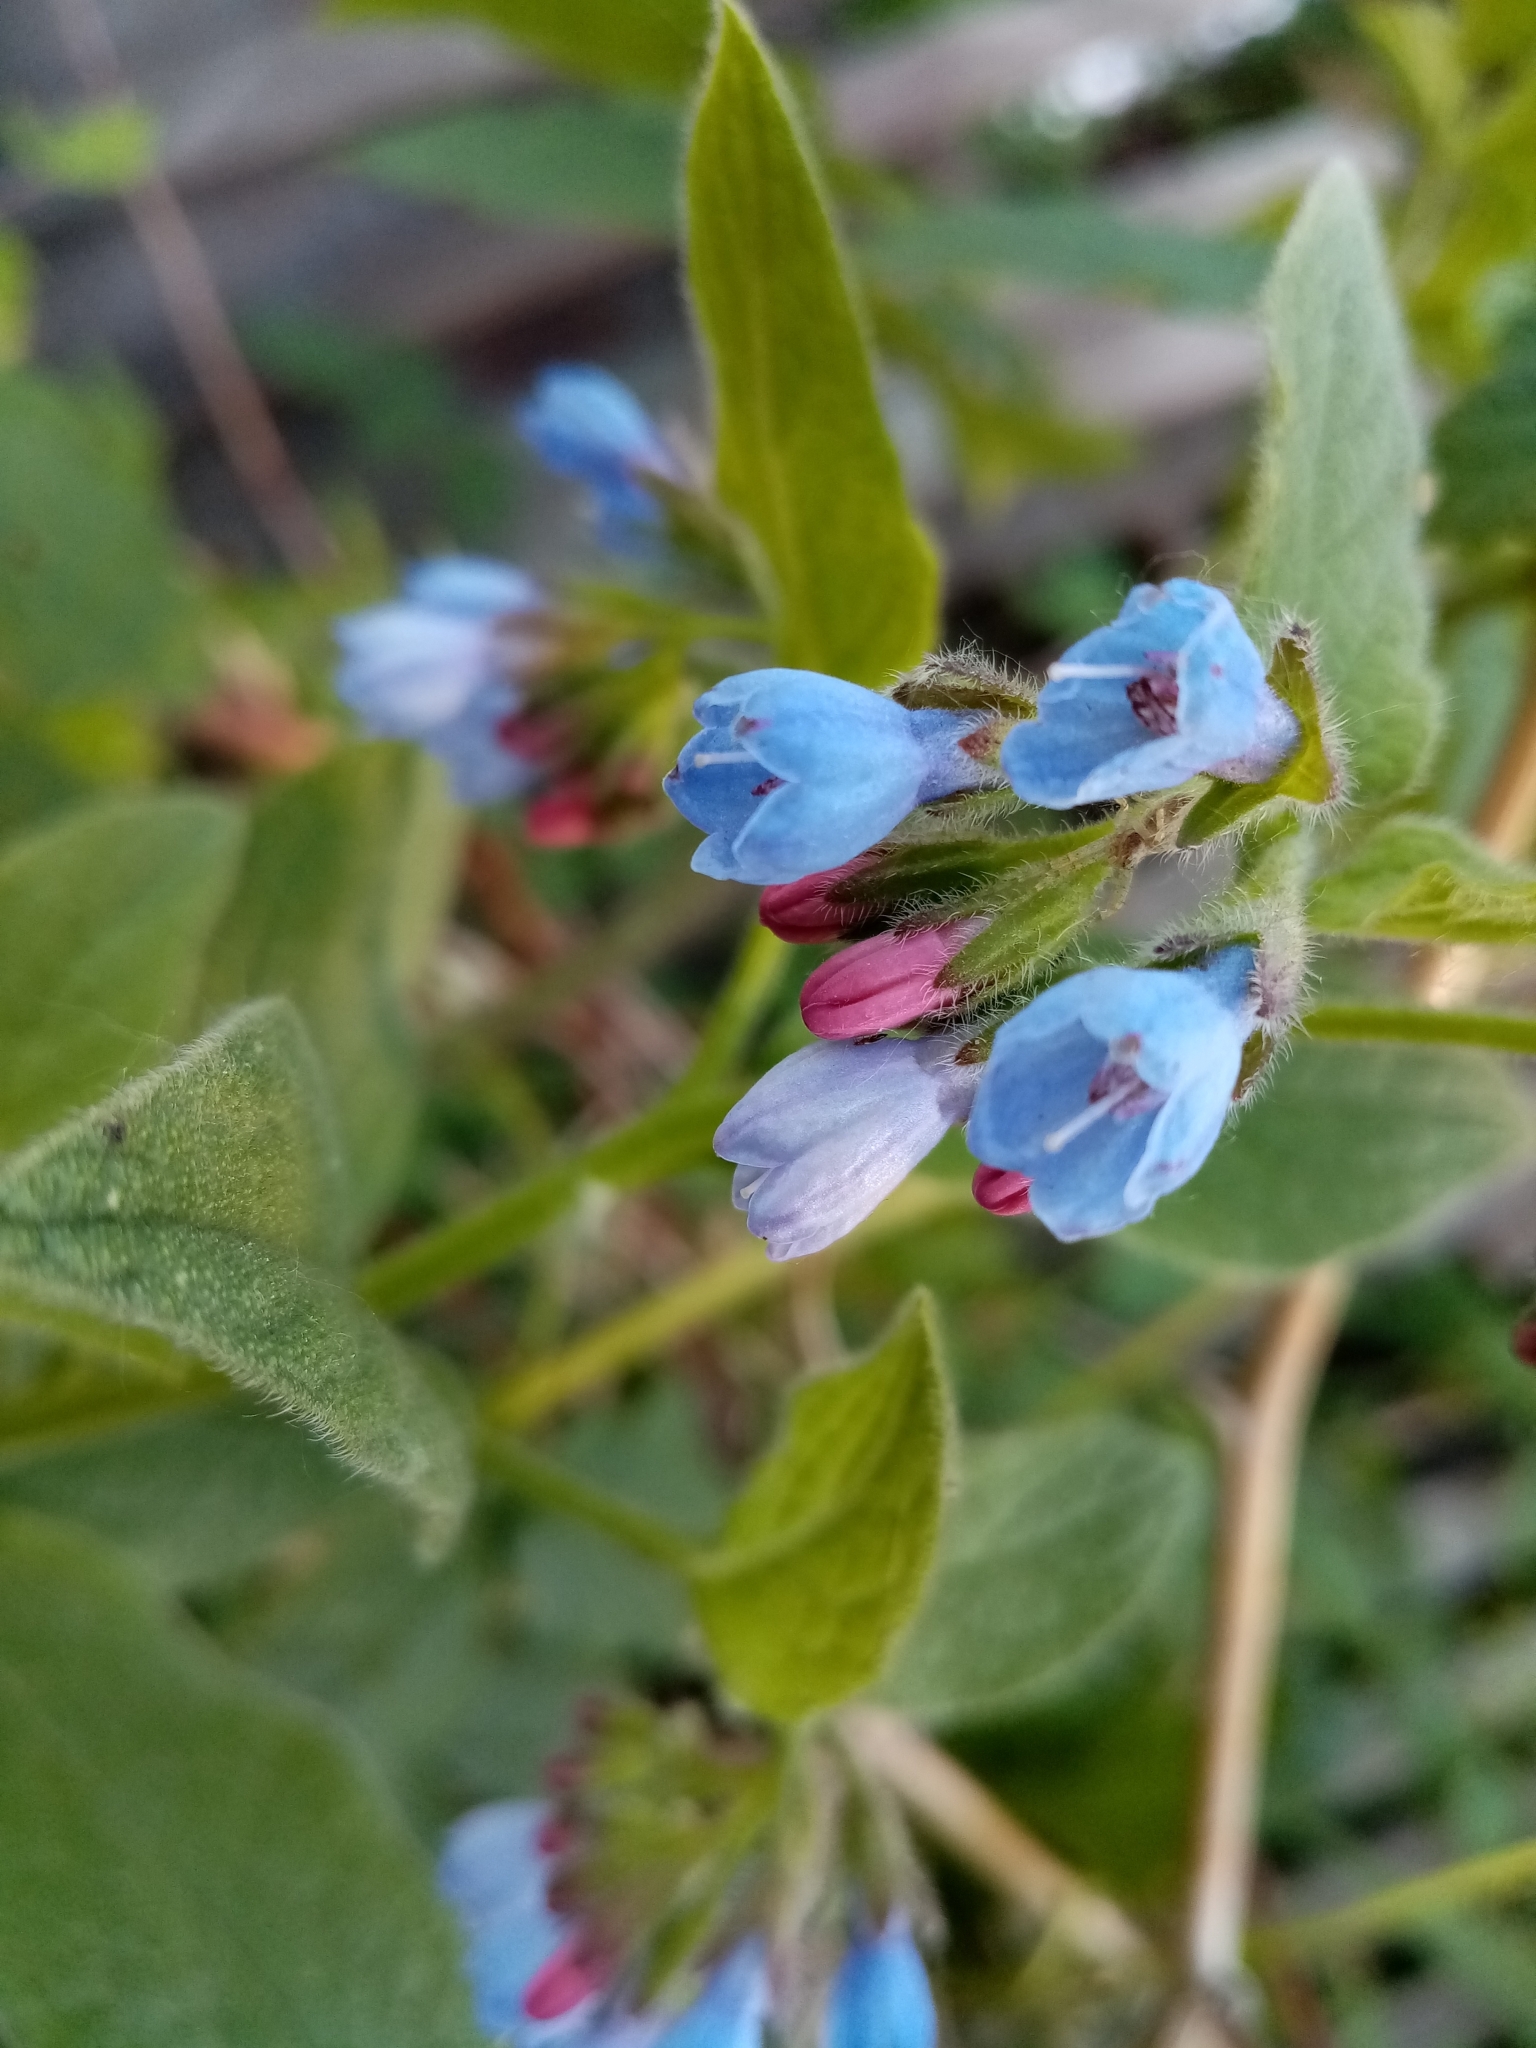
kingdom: Plantae
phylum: Tracheophyta
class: Magnoliopsida
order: Boraginales
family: Boraginaceae
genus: Symphytum
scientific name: Symphytum caucasicum
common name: Caucasian comfrey
